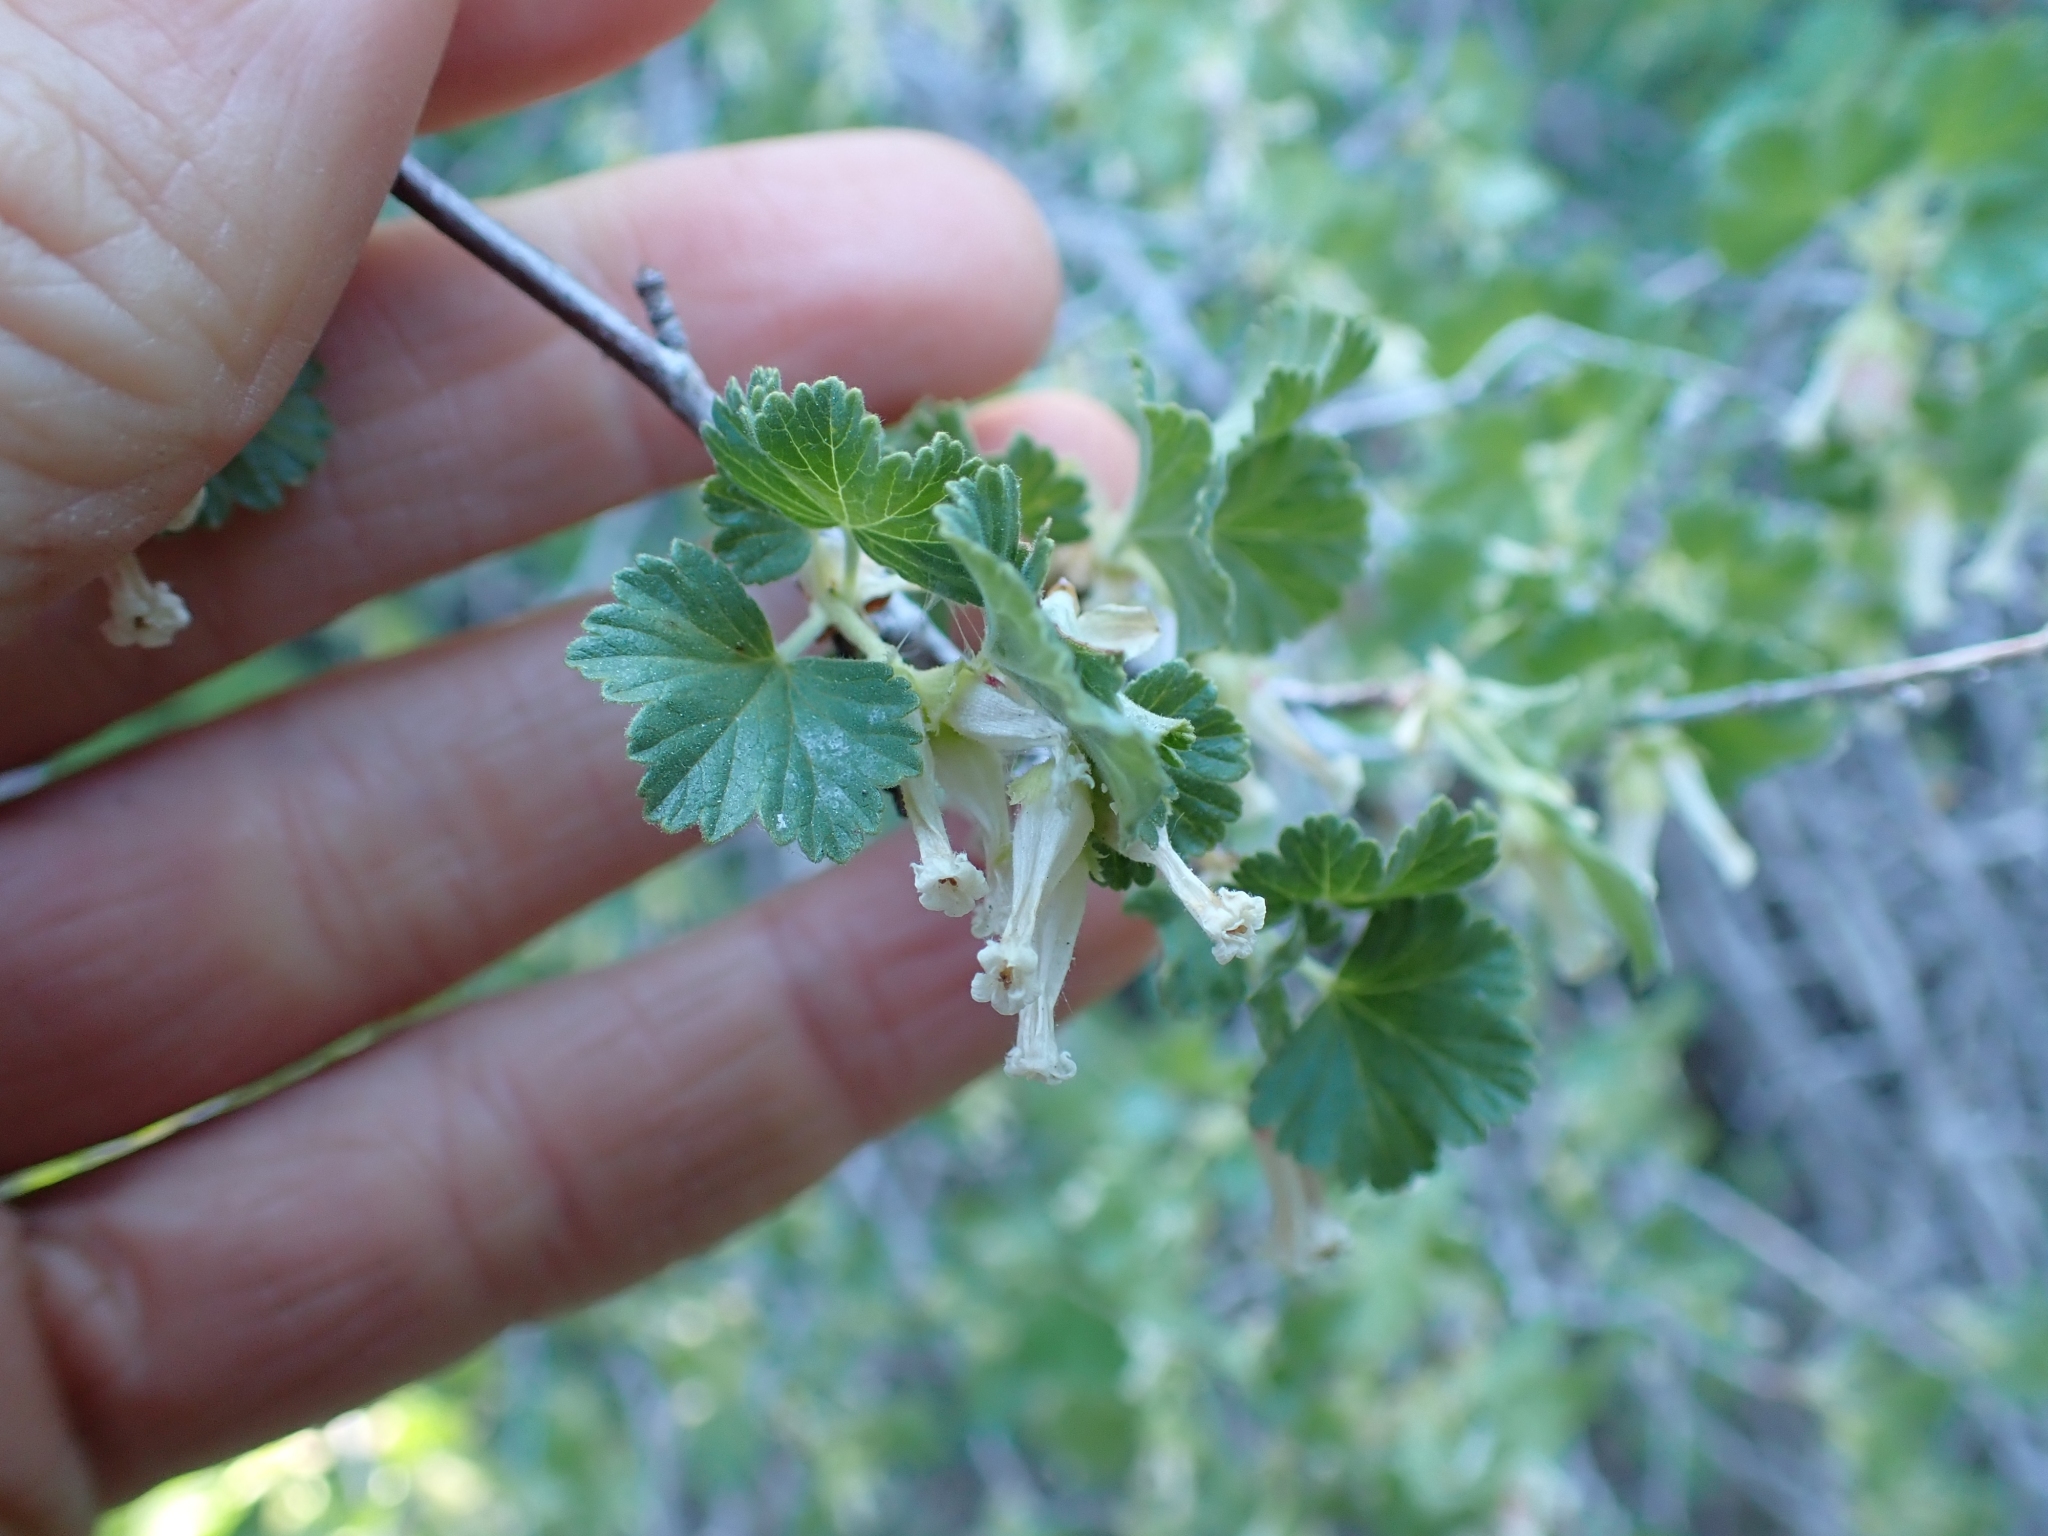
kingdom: Plantae
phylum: Tracheophyta
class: Magnoliopsida
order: Saxifragales
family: Grossulariaceae
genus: Ribes
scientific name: Ribes cereum
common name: Wax currant
